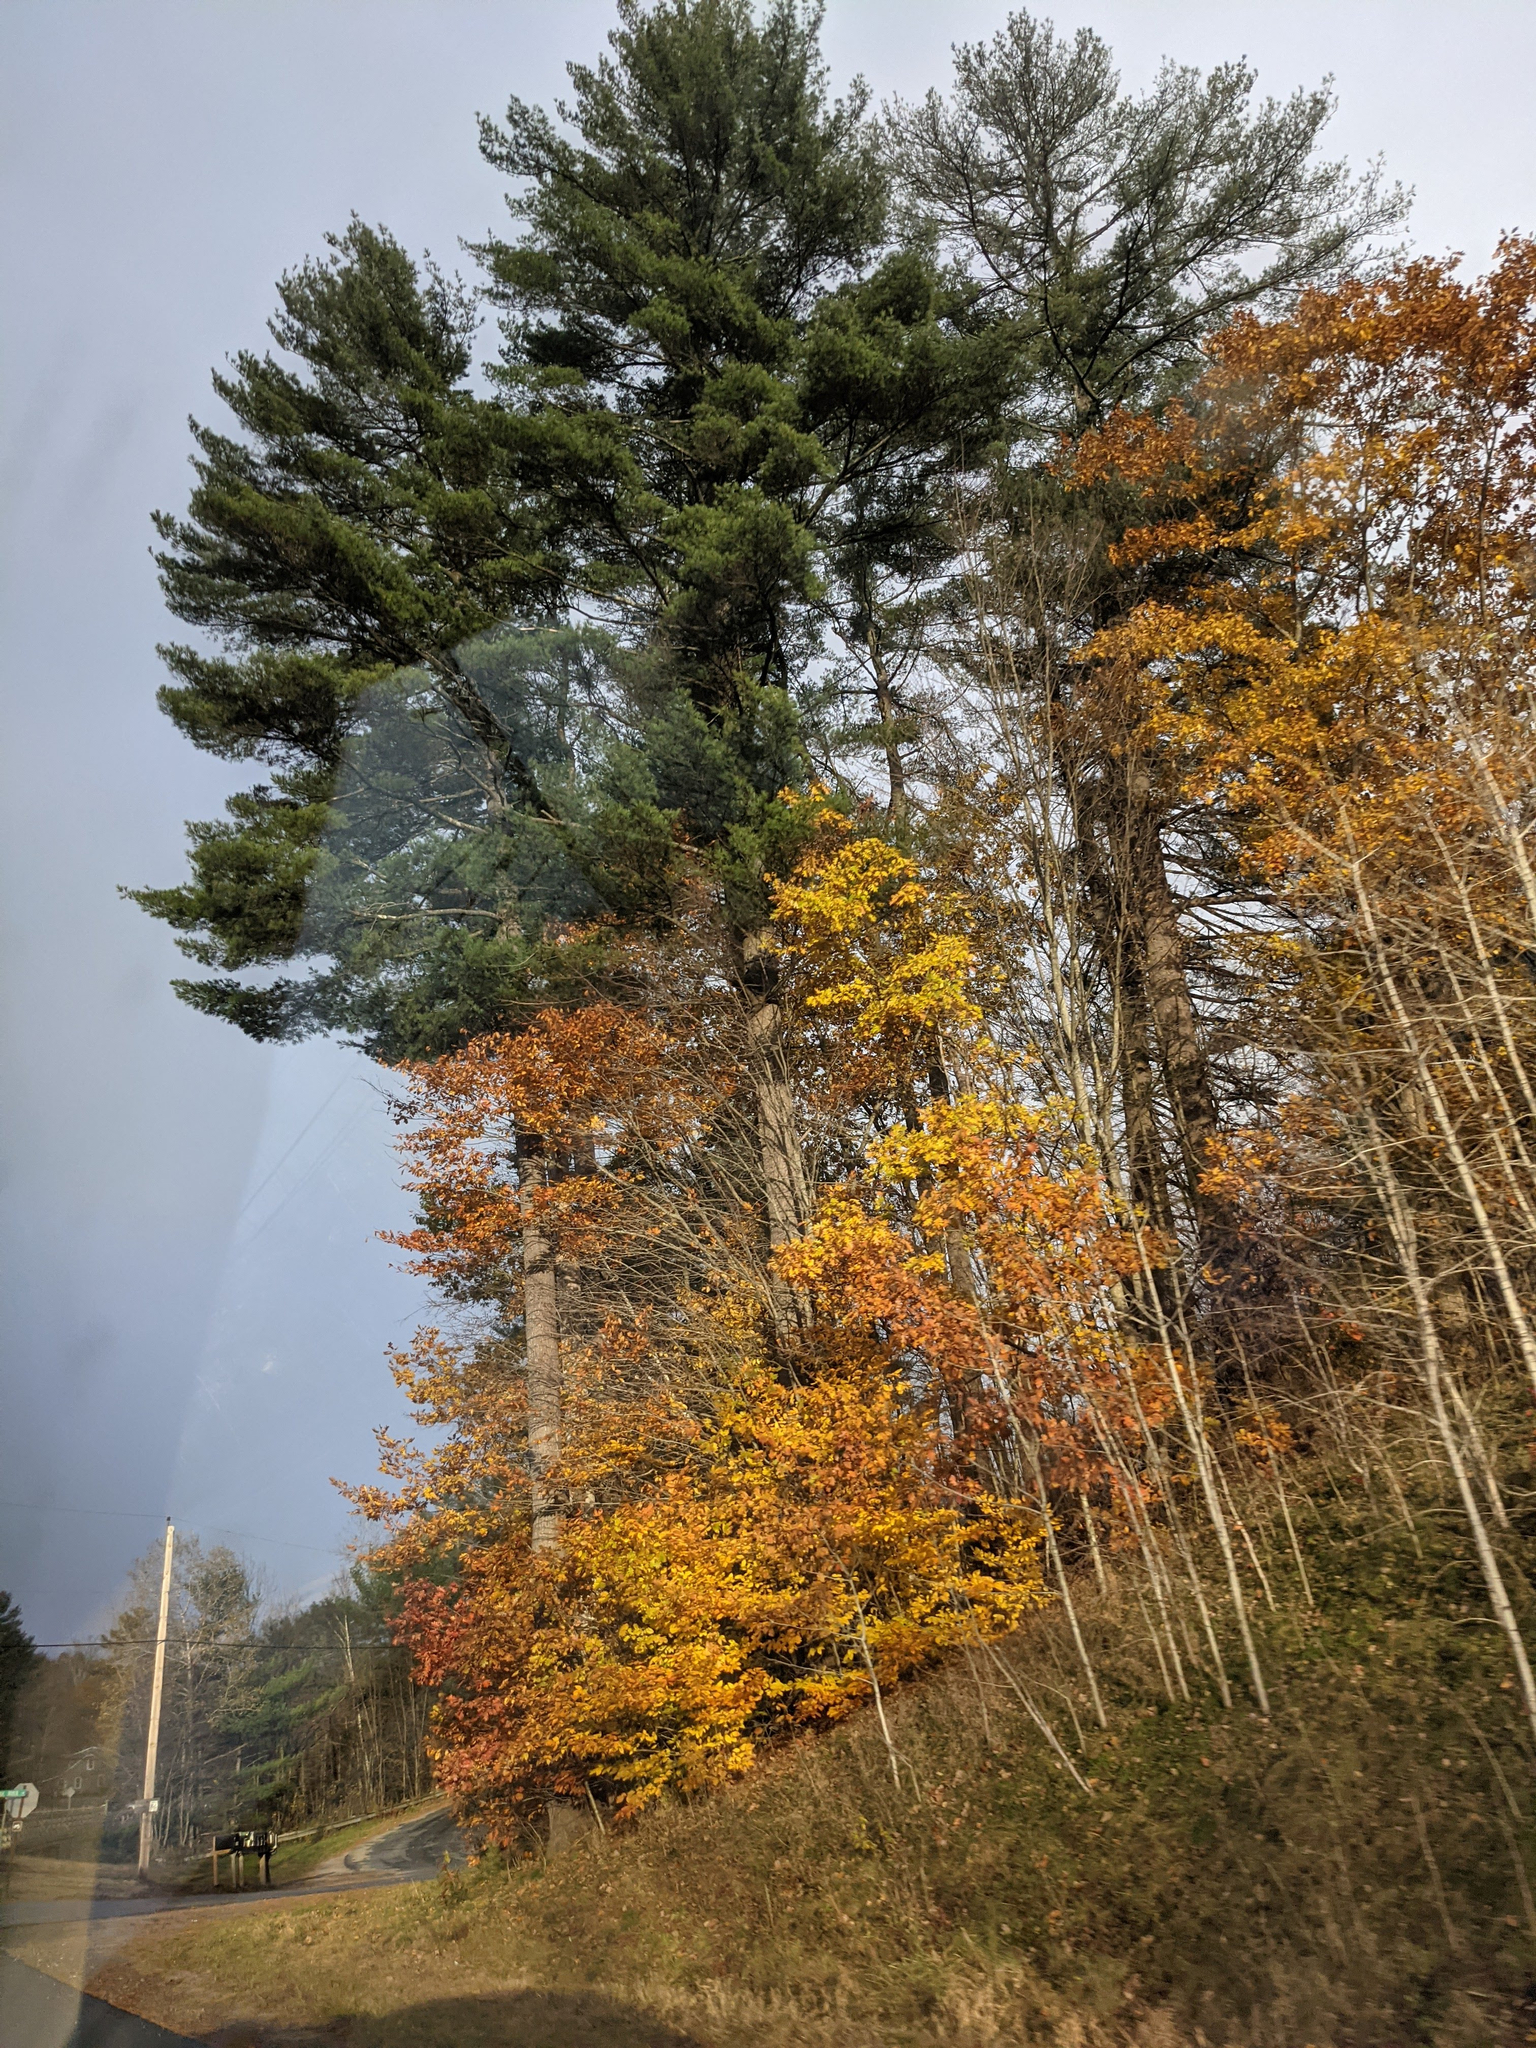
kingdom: Plantae
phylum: Tracheophyta
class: Pinopsida
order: Pinales
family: Pinaceae
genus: Pinus
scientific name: Pinus strobus
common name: Weymouth pine
